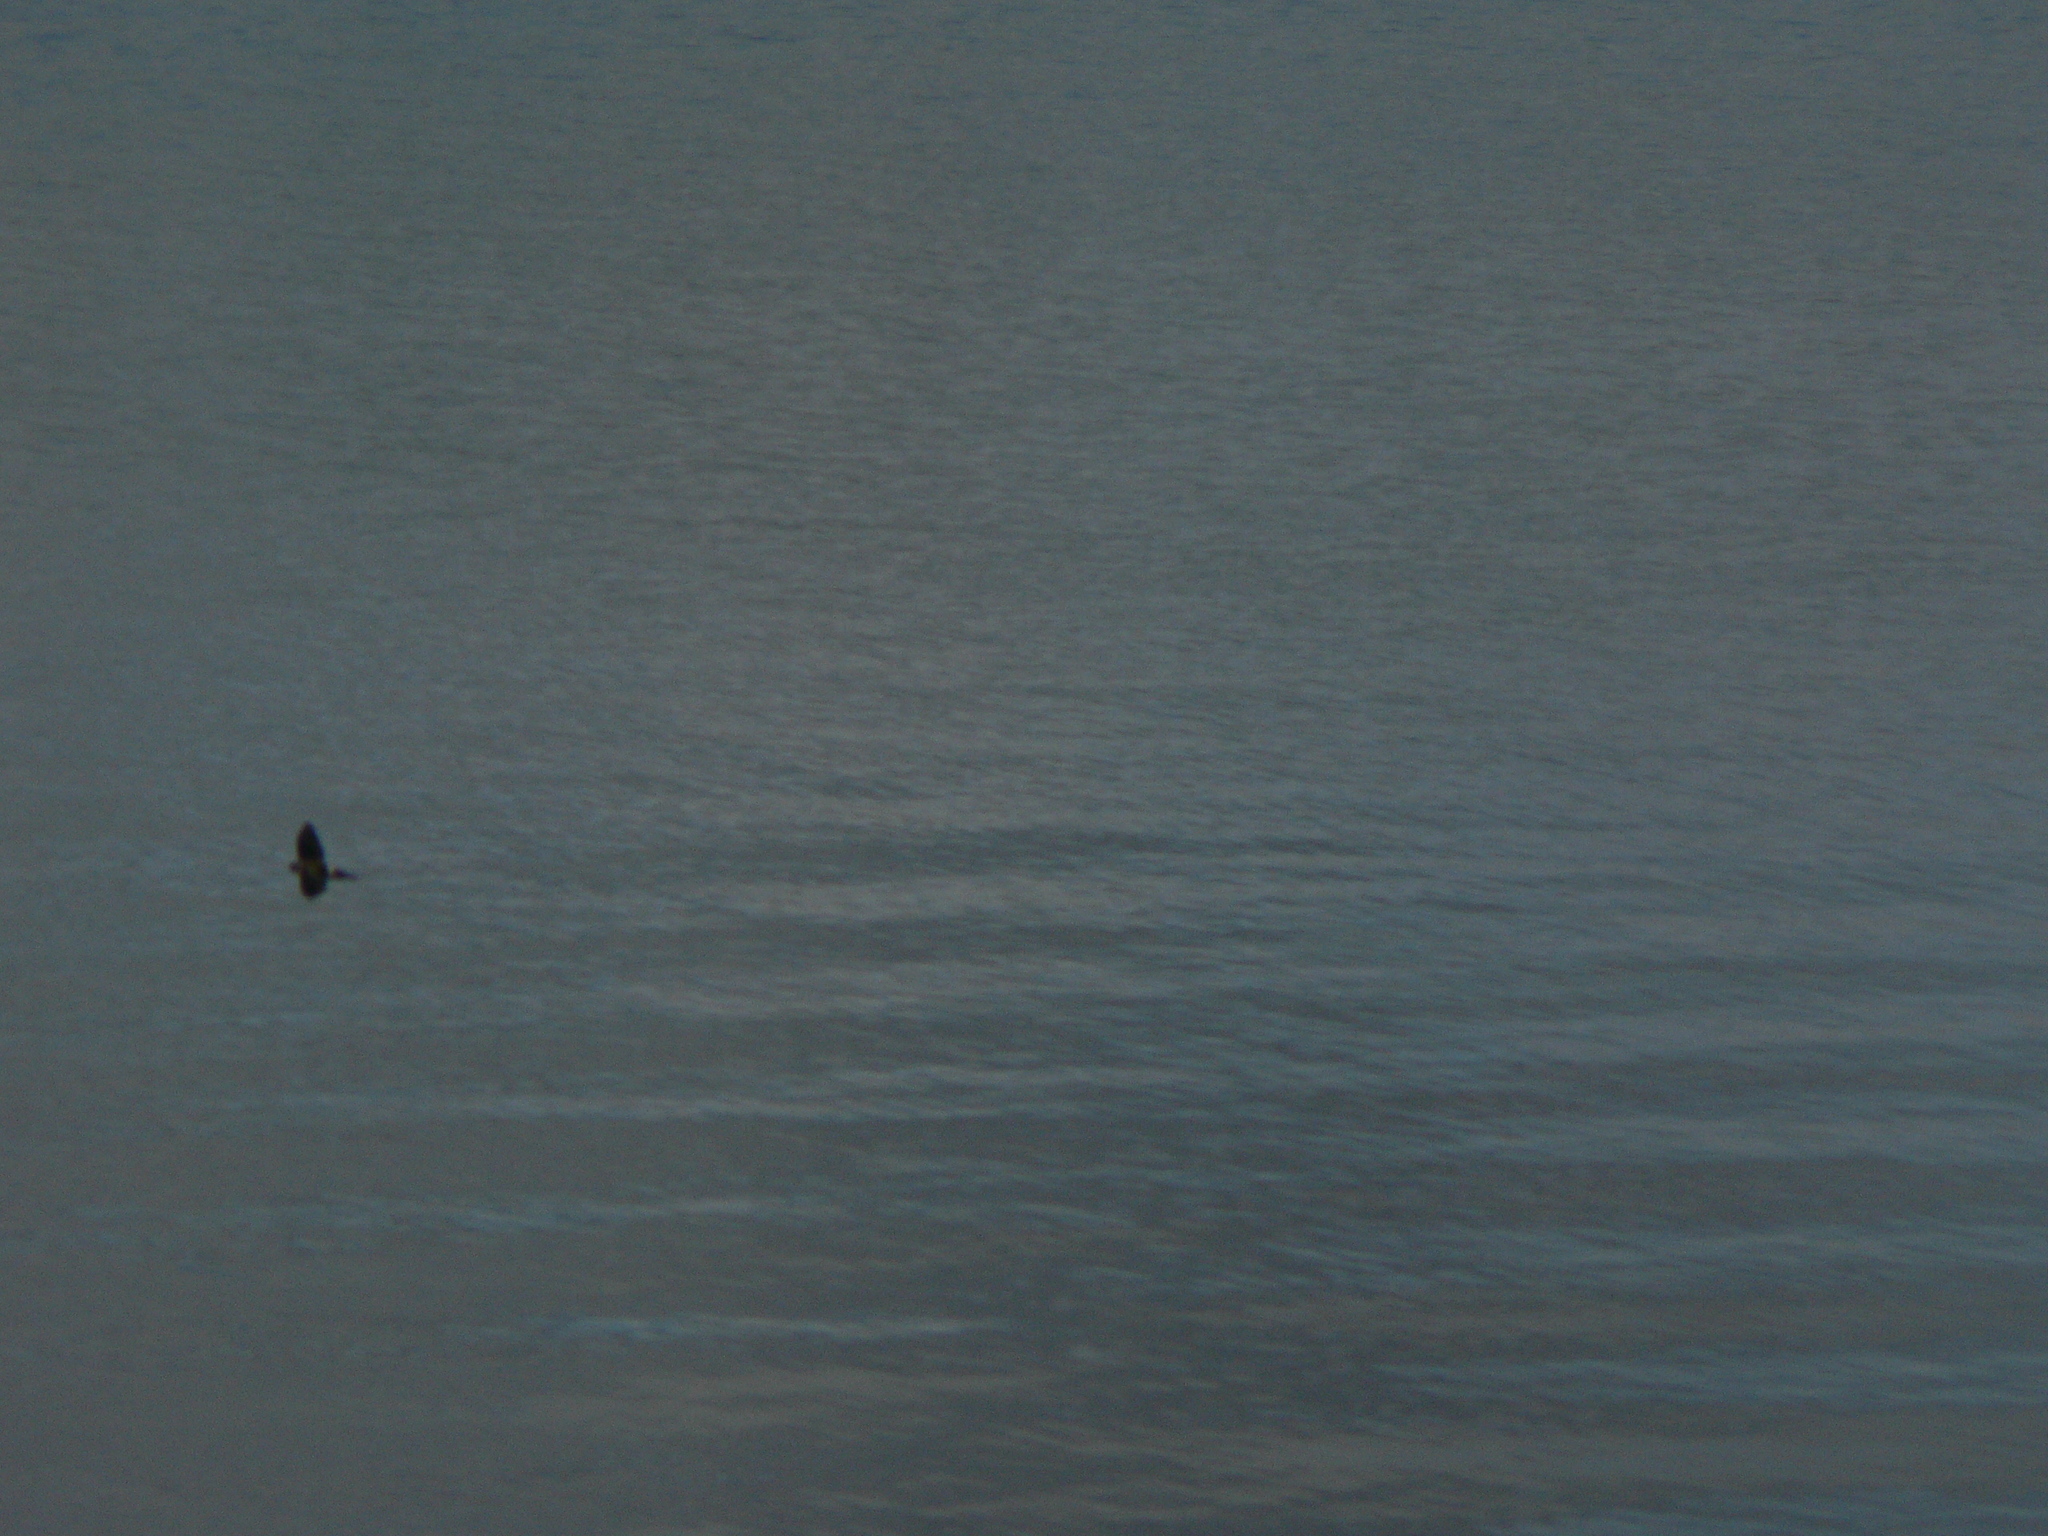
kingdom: Animalia
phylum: Chordata
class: Aves
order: Apodiformes
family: Apodidae
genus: Aerodramus
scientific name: Aerodramus terraereginae
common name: Australian swiftlet
